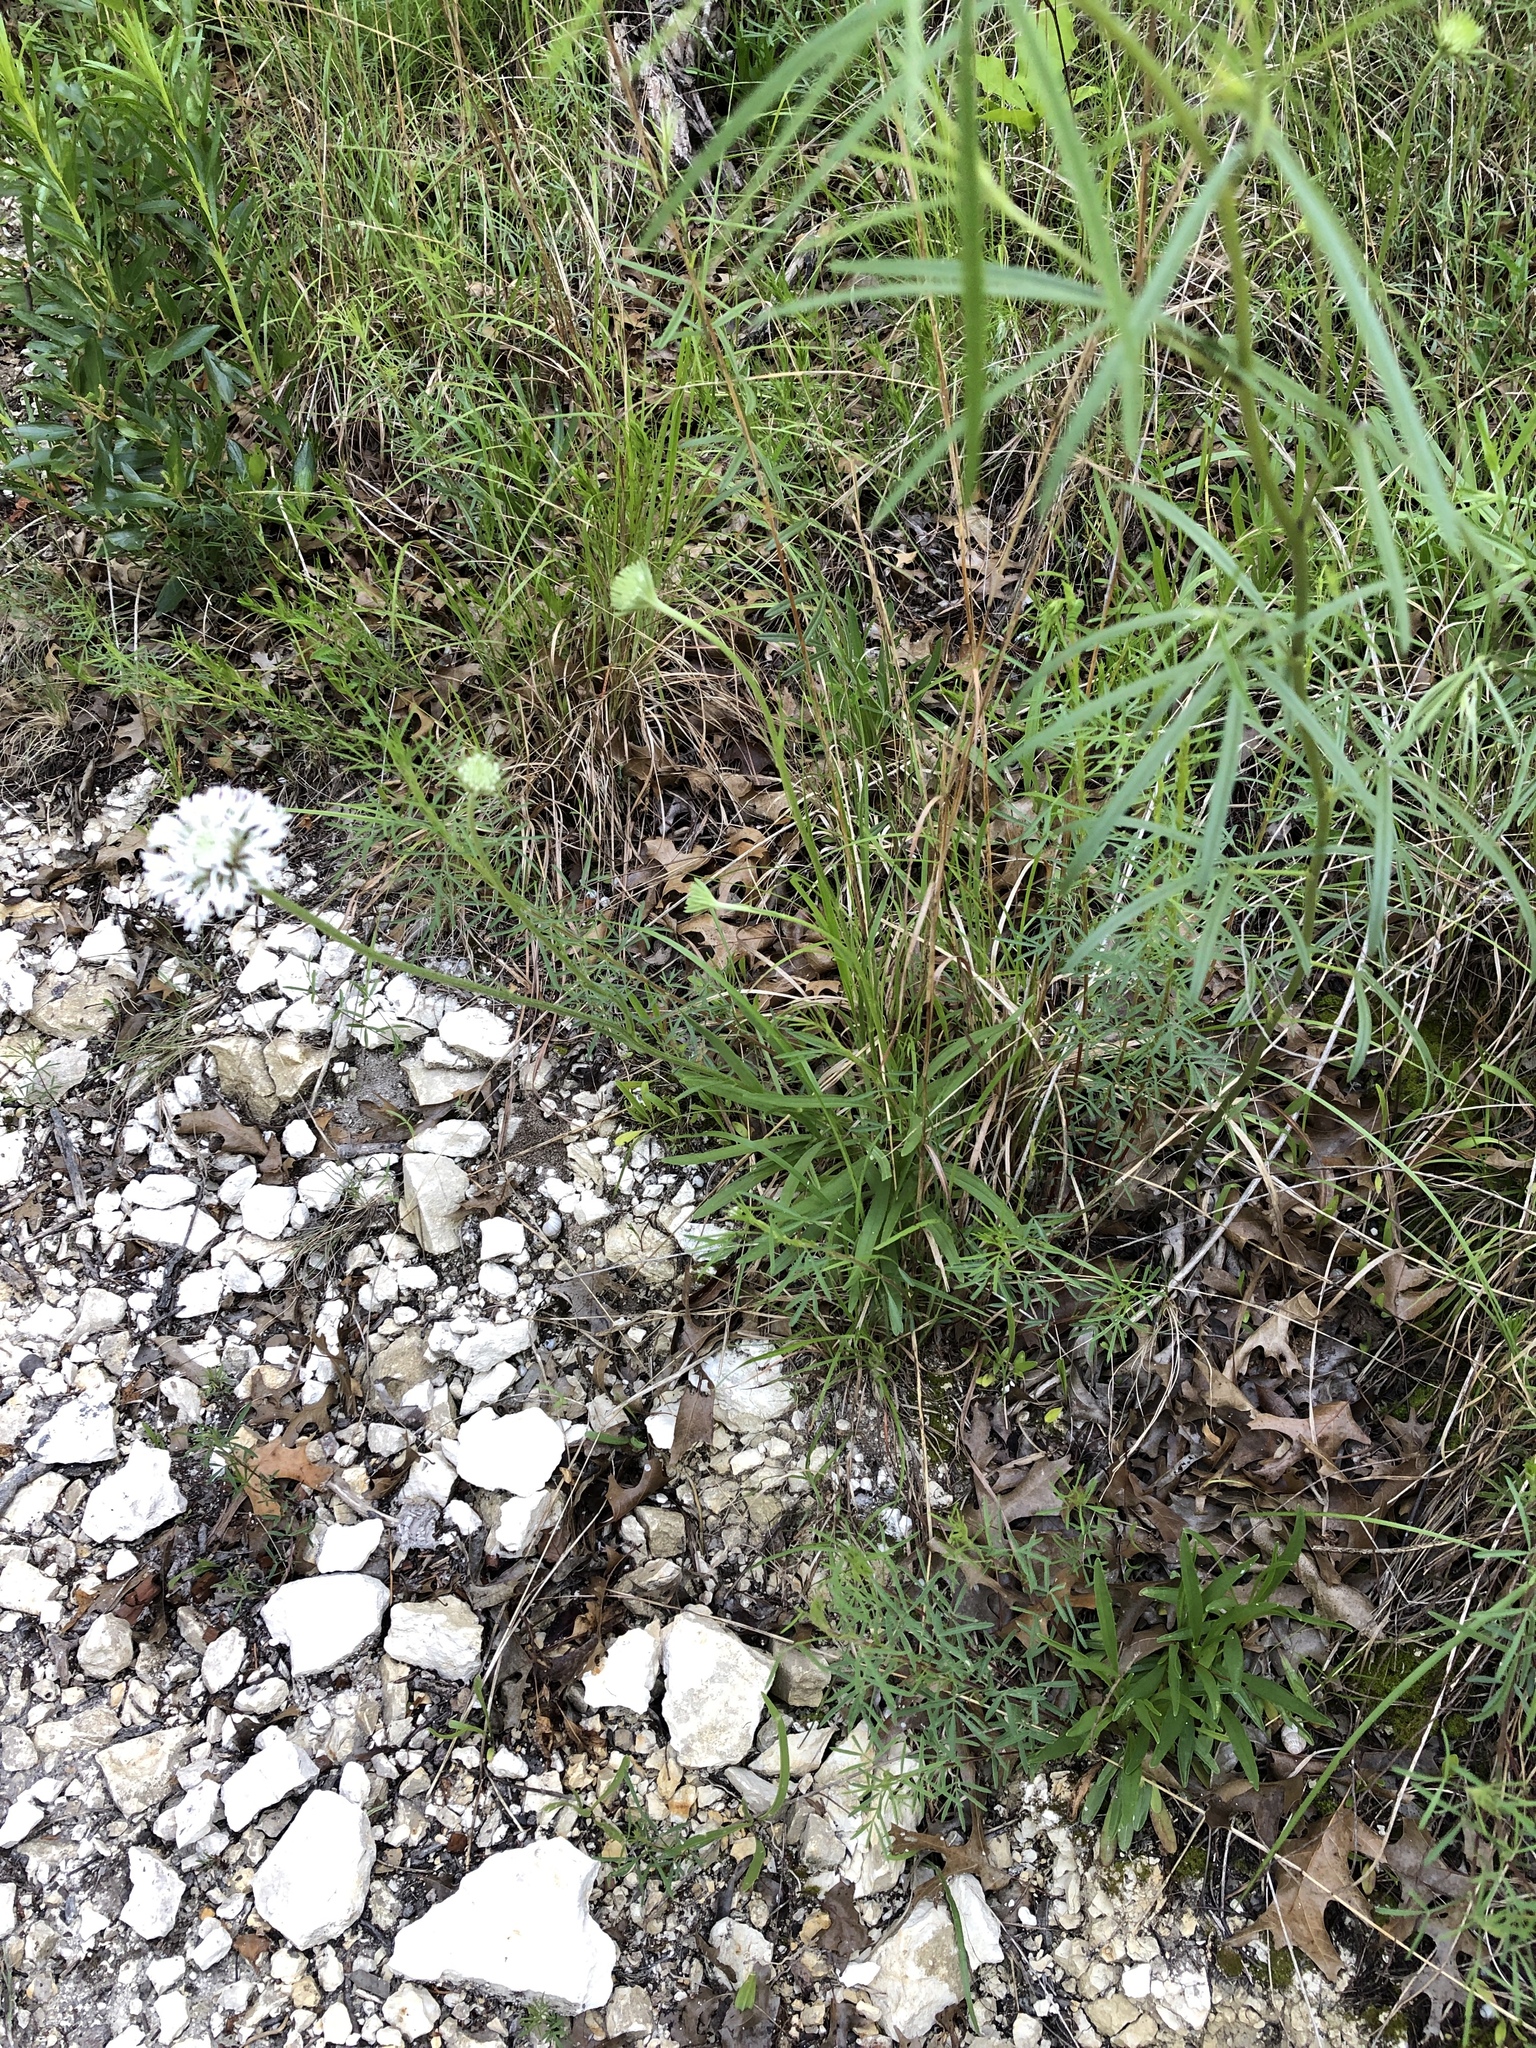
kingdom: Plantae
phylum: Tracheophyta
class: Magnoliopsida
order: Asterales
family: Asteraceae
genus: Marshallia
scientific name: Marshallia caespitosa
